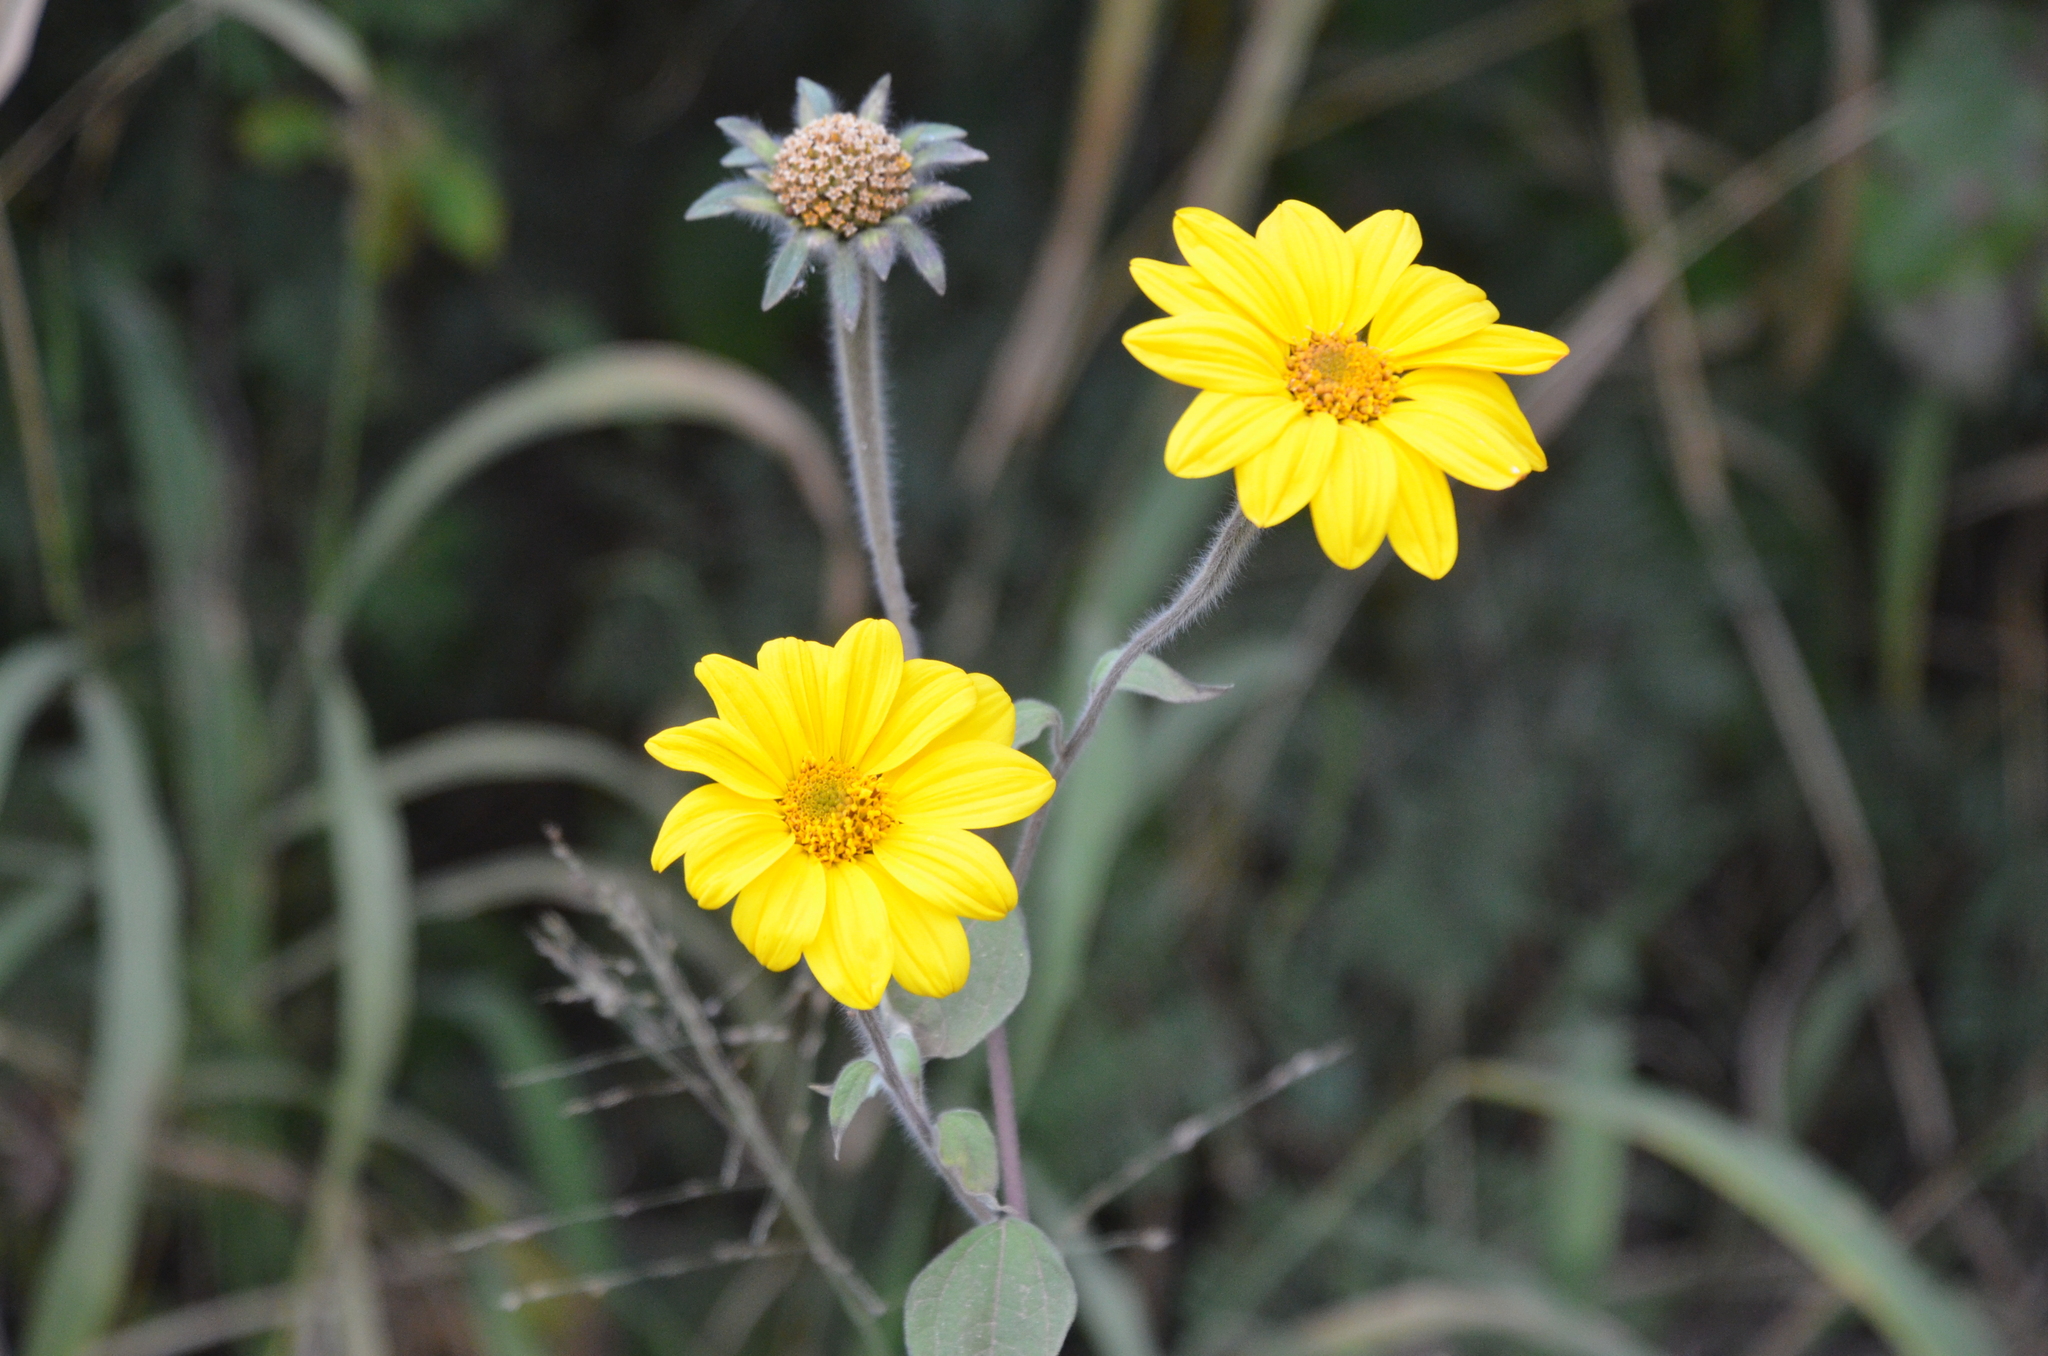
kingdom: Plantae
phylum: Tracheophyta
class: Magnoliopsida
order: Asterales
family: Asteraceae
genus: Tithonia
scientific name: Tithonia tubaeformis
